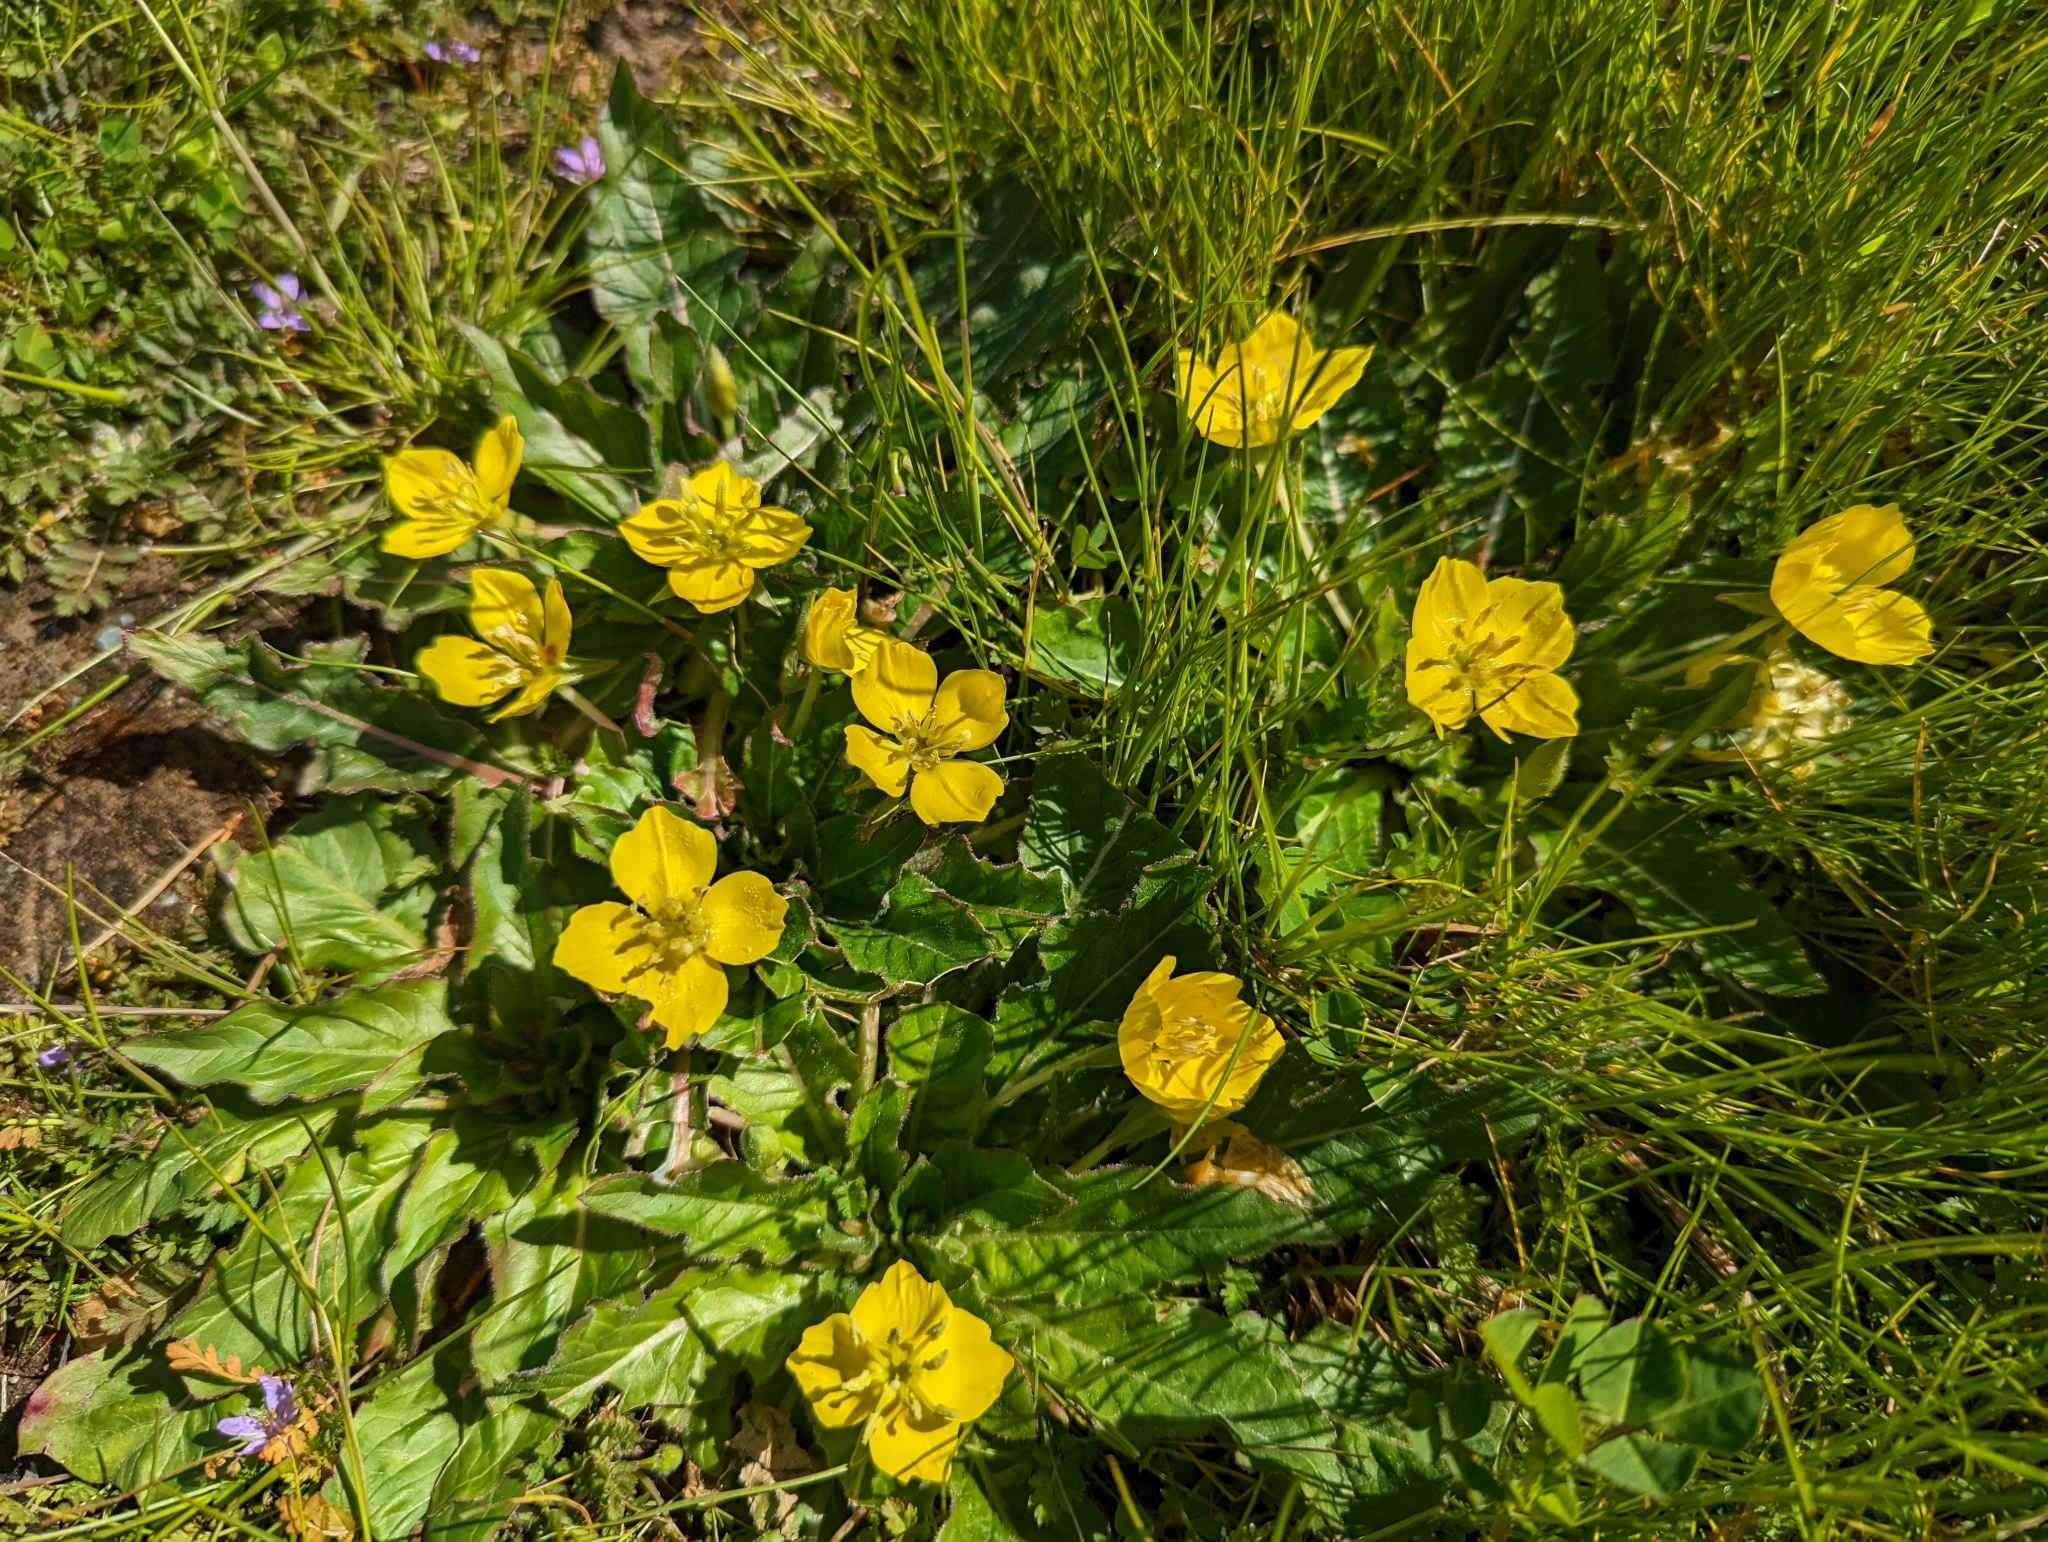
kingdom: Plantae
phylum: Tracheophyta
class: Magnoliopsida
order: Myrtales
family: Onagraceae
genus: Taraxia
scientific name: Taraxia ovata
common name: Goldeneggs
